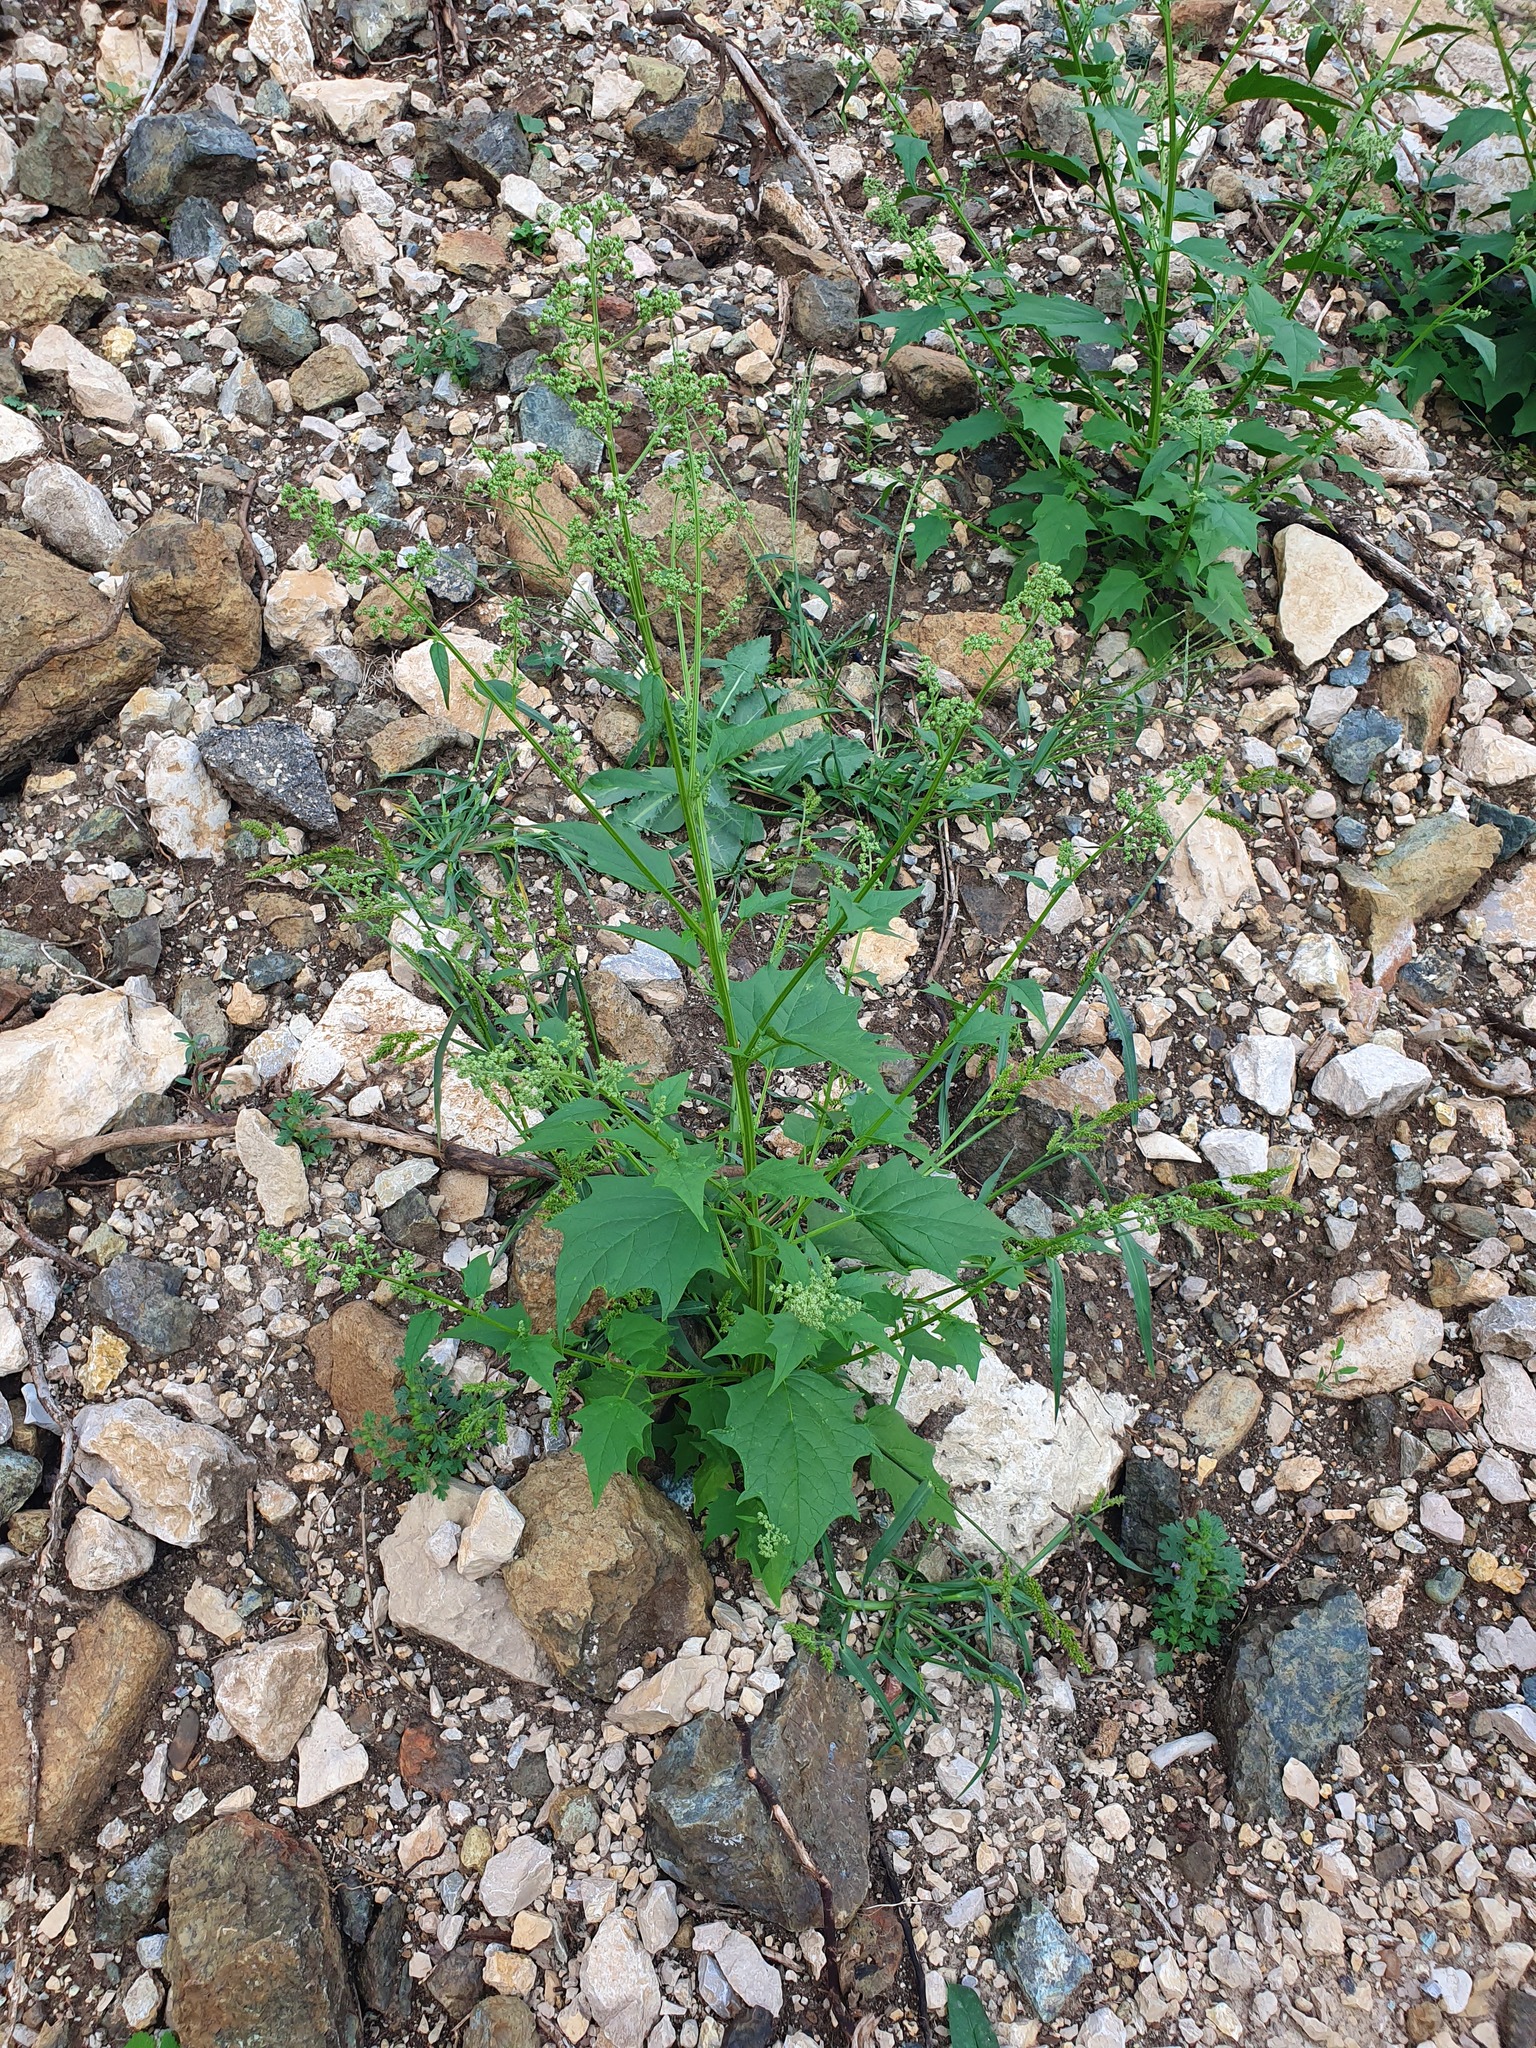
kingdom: Plantae
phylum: Tracheophyta
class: Magnoliopsida
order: Caryophyllales
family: Amaranthaceae
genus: Chenopodiastrum
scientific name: Chenopodiastrum hybridum
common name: Mapleleaf goosefoot
